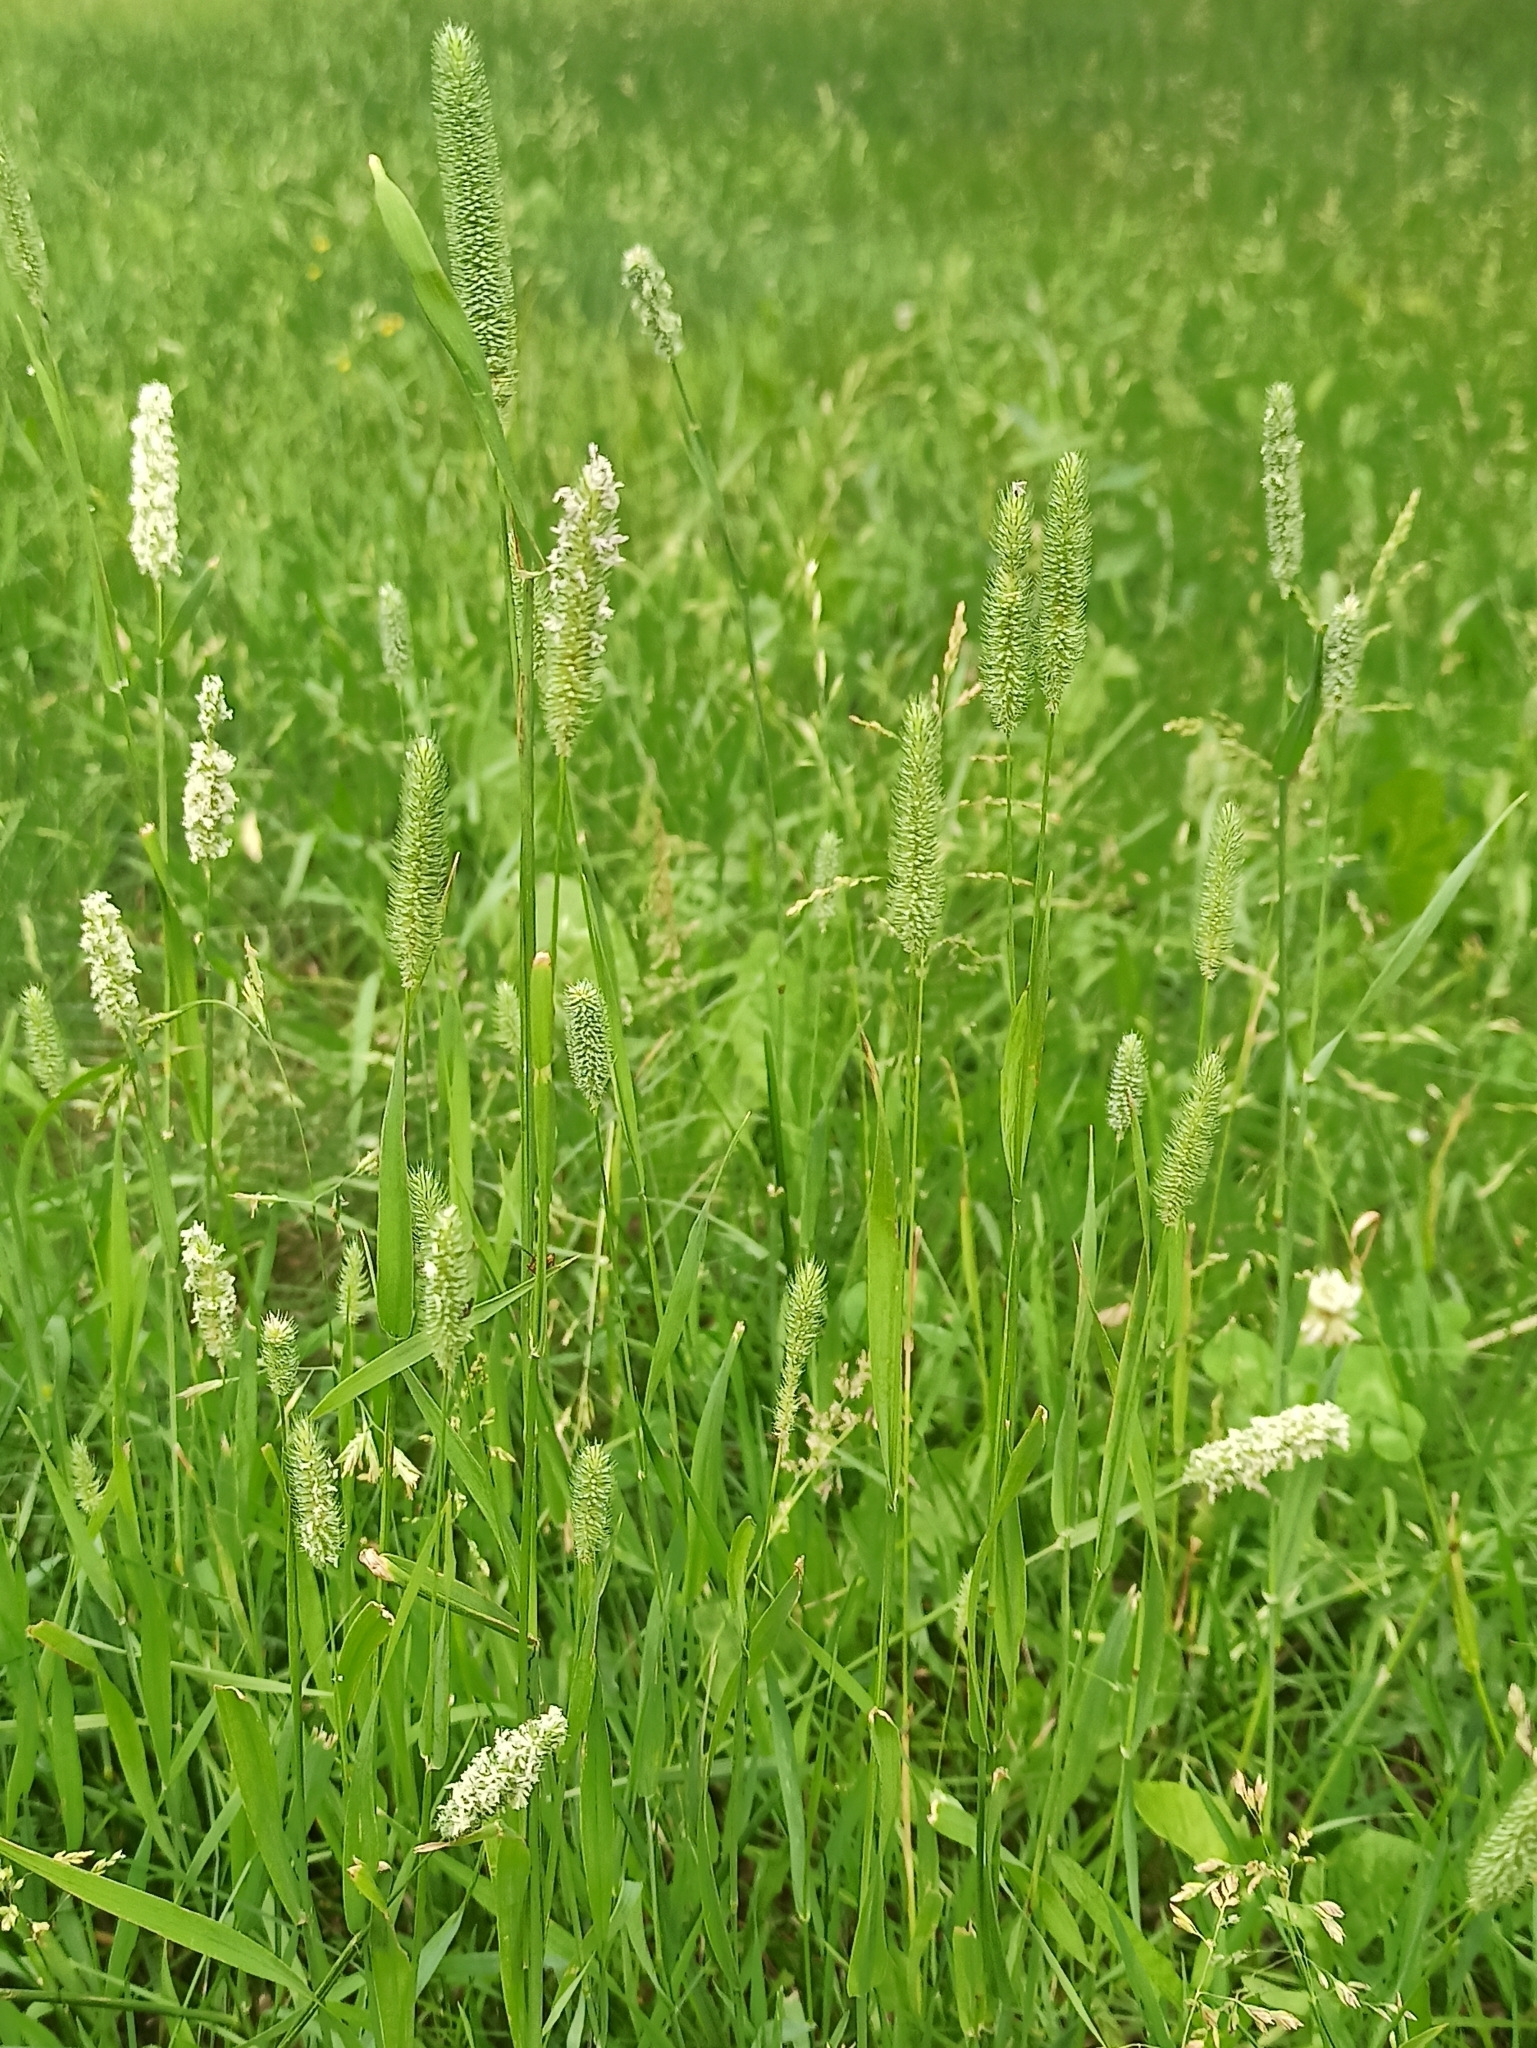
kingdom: Plantae
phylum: Tracheophyta
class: Liliopsida
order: Poales
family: Poaceae
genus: Phleum
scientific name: Phleum pratense
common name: Timothy grass
